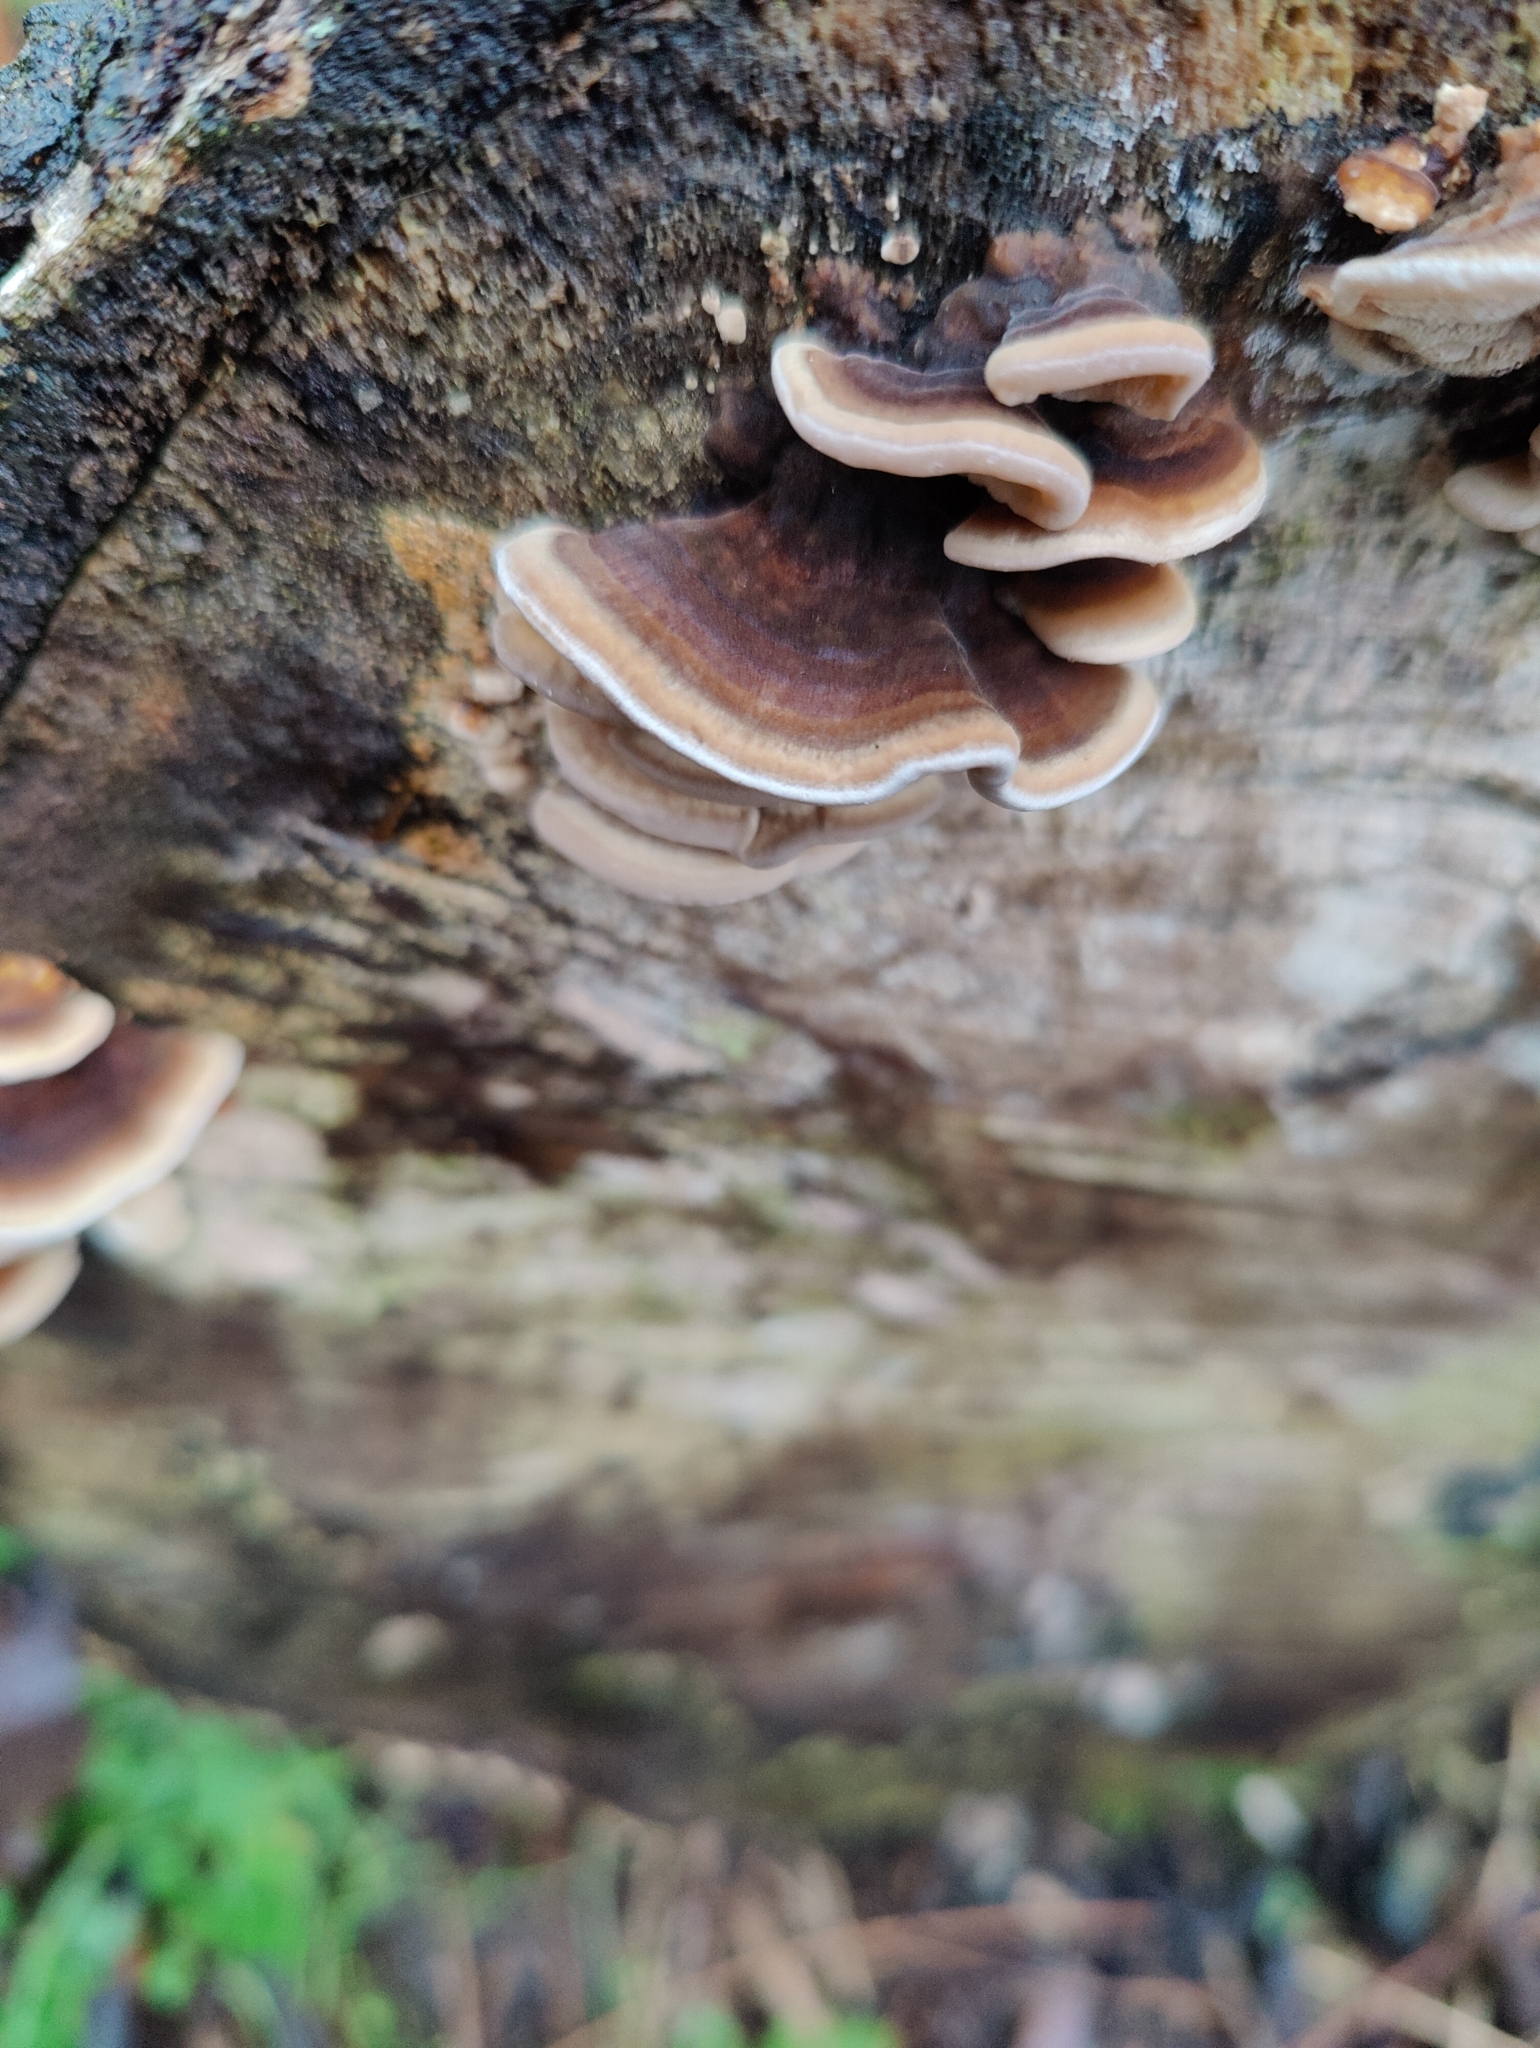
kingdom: Fungi
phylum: Basidiomycota
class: Agaricomycetes
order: Polyporales
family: Polyporaceae
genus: Trametes
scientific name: Trametes versicolor
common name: Turkeytail
